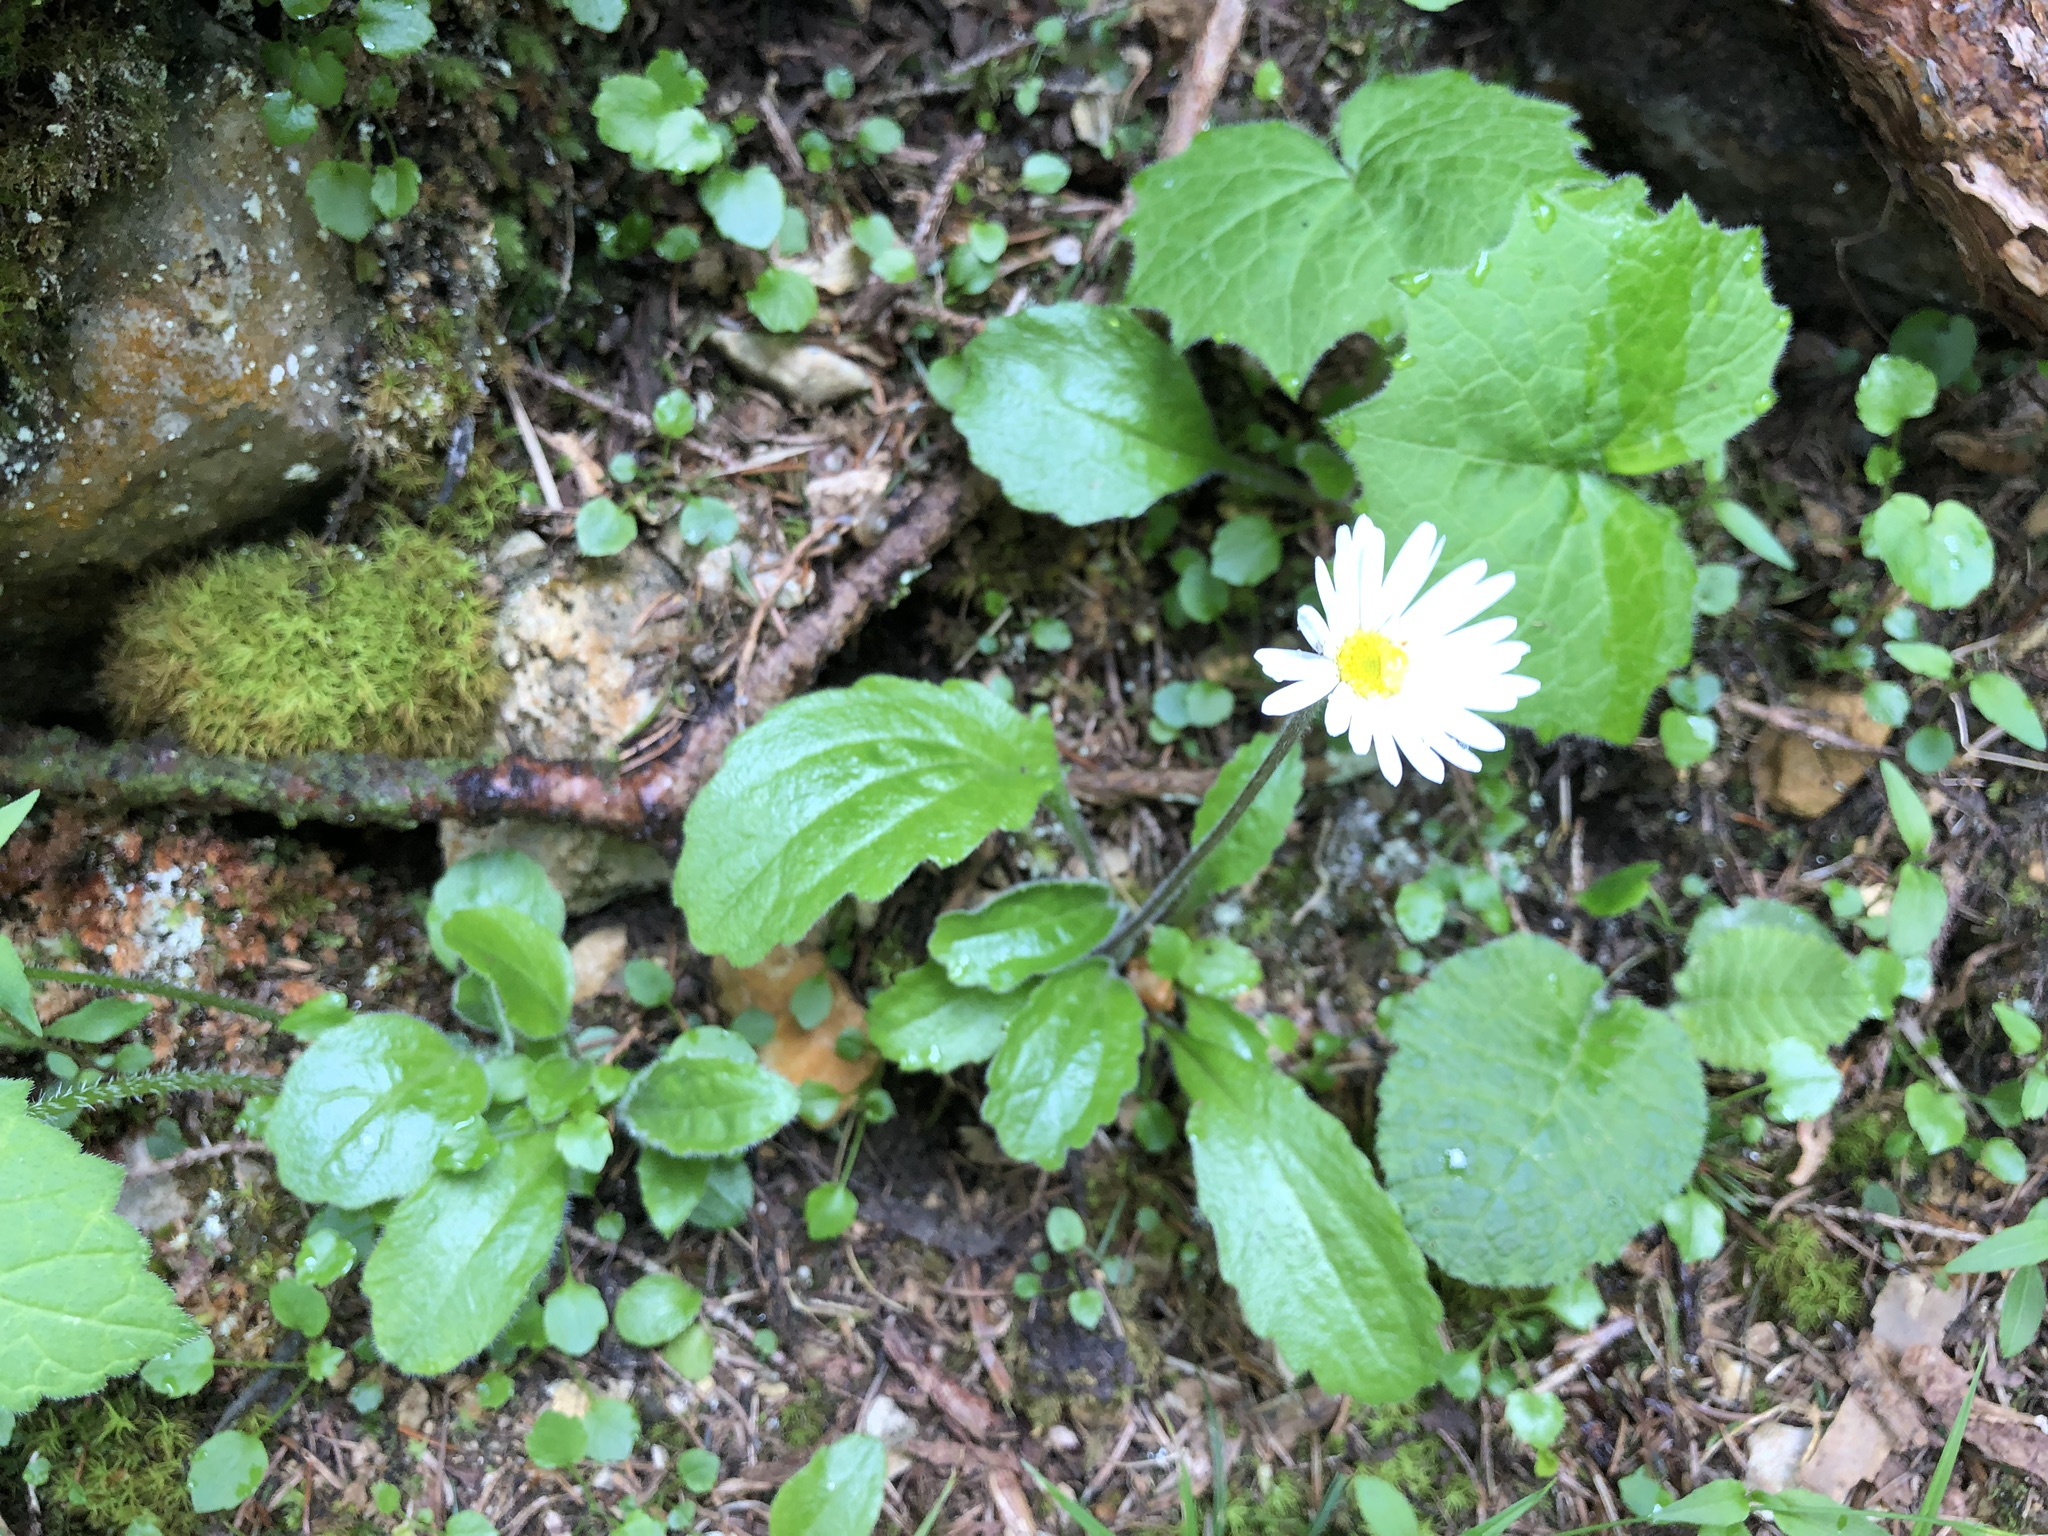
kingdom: Plantae
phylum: Tracheophyta
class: Magnoliopsida
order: Asterales
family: Asteraceae
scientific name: Asteraceae
